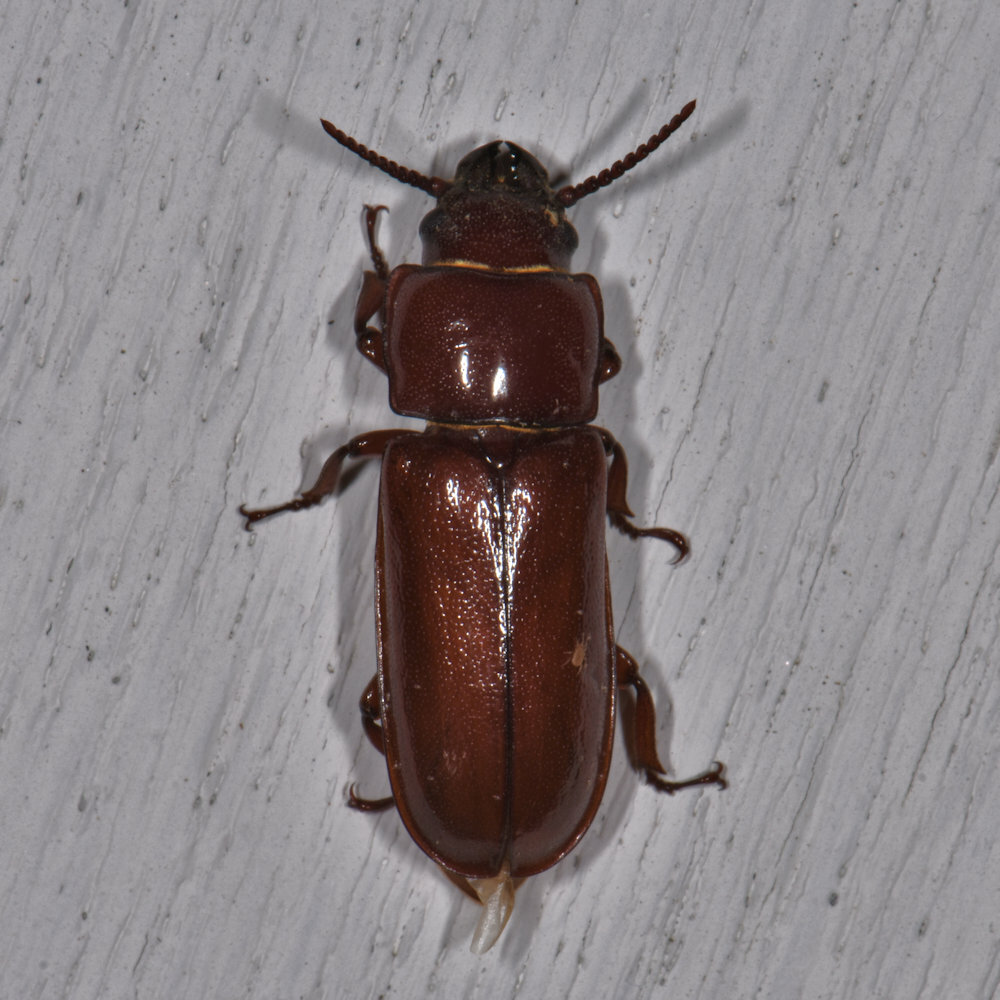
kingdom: Animalia
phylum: Arthropoda
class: Insecta
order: Coleoptera
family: Cerambycidae
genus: Neandra
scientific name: Neandra brunnea
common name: Pole borer
